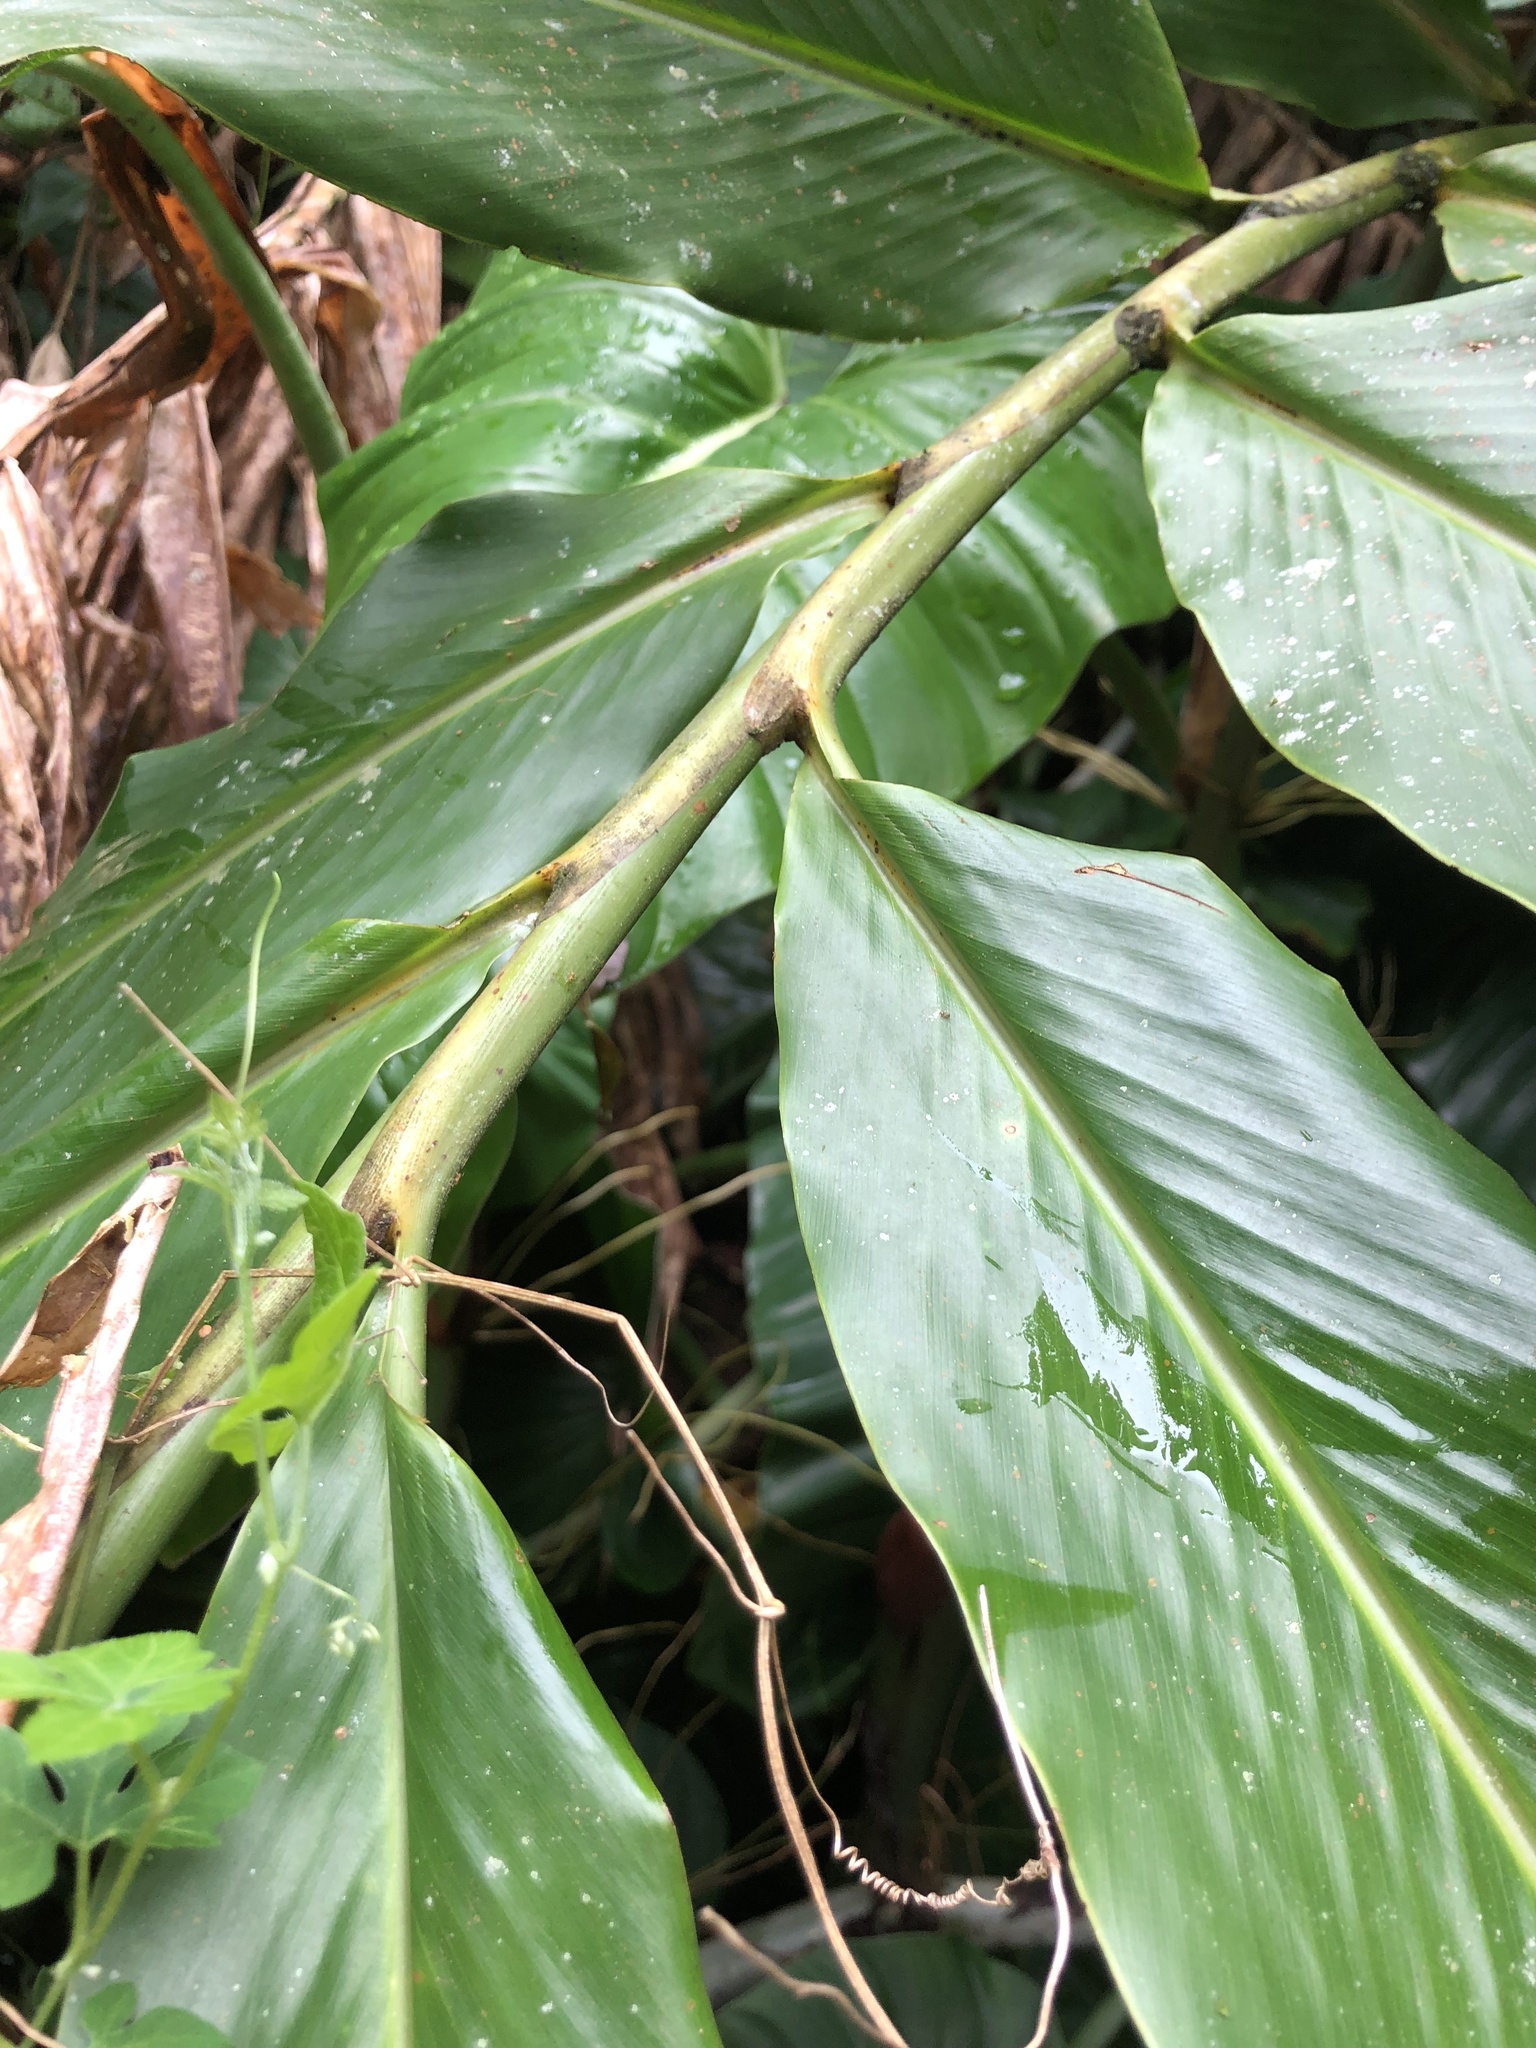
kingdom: Plantae
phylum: Tracheophyta
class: Liliopsida
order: Zingiberales
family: Zingiberaceae
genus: Alpinia
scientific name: Alpinia purpurata
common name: Red ginger
